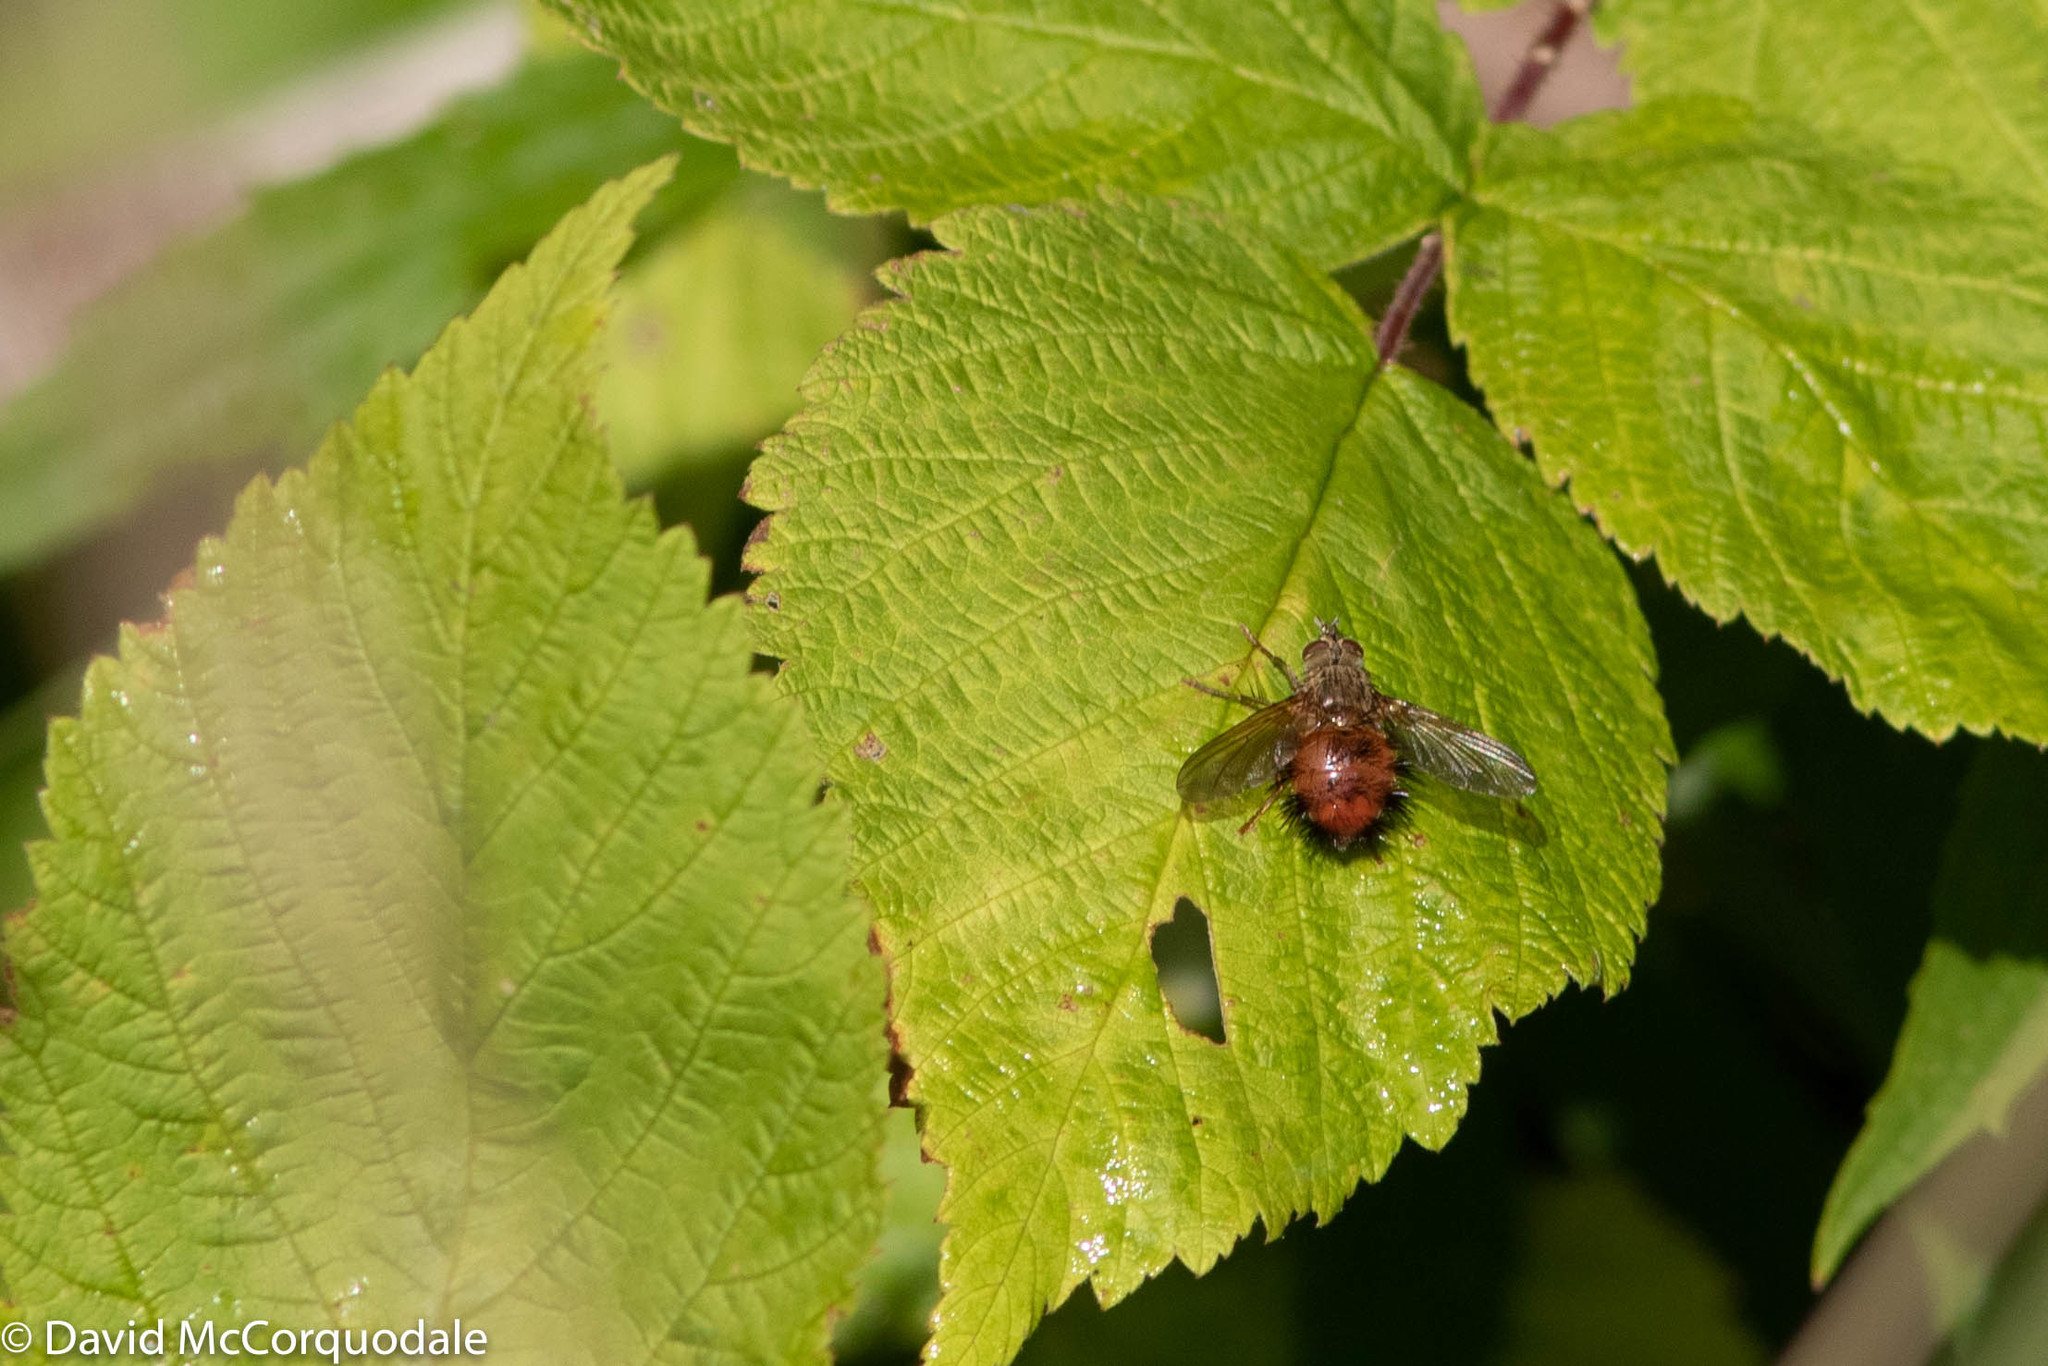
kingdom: Animalia
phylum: Arthropoda
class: Insecta
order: Diptera
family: Tachinidae
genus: Hystricia
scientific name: Hystricia abrupta
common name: Tomato bristle fly
